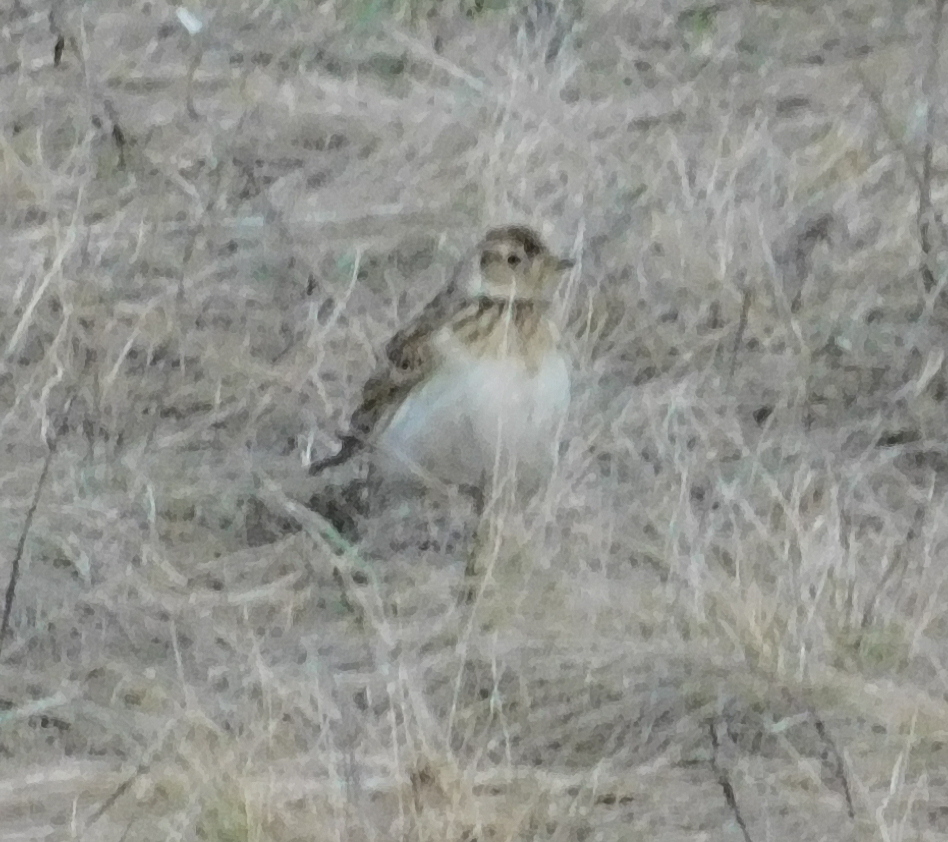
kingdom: Animalia
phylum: Chordata
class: Aves
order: Passeriformes
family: Alaudidae
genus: Alauda
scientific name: Alauda arvensis
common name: Eurasian skylark
